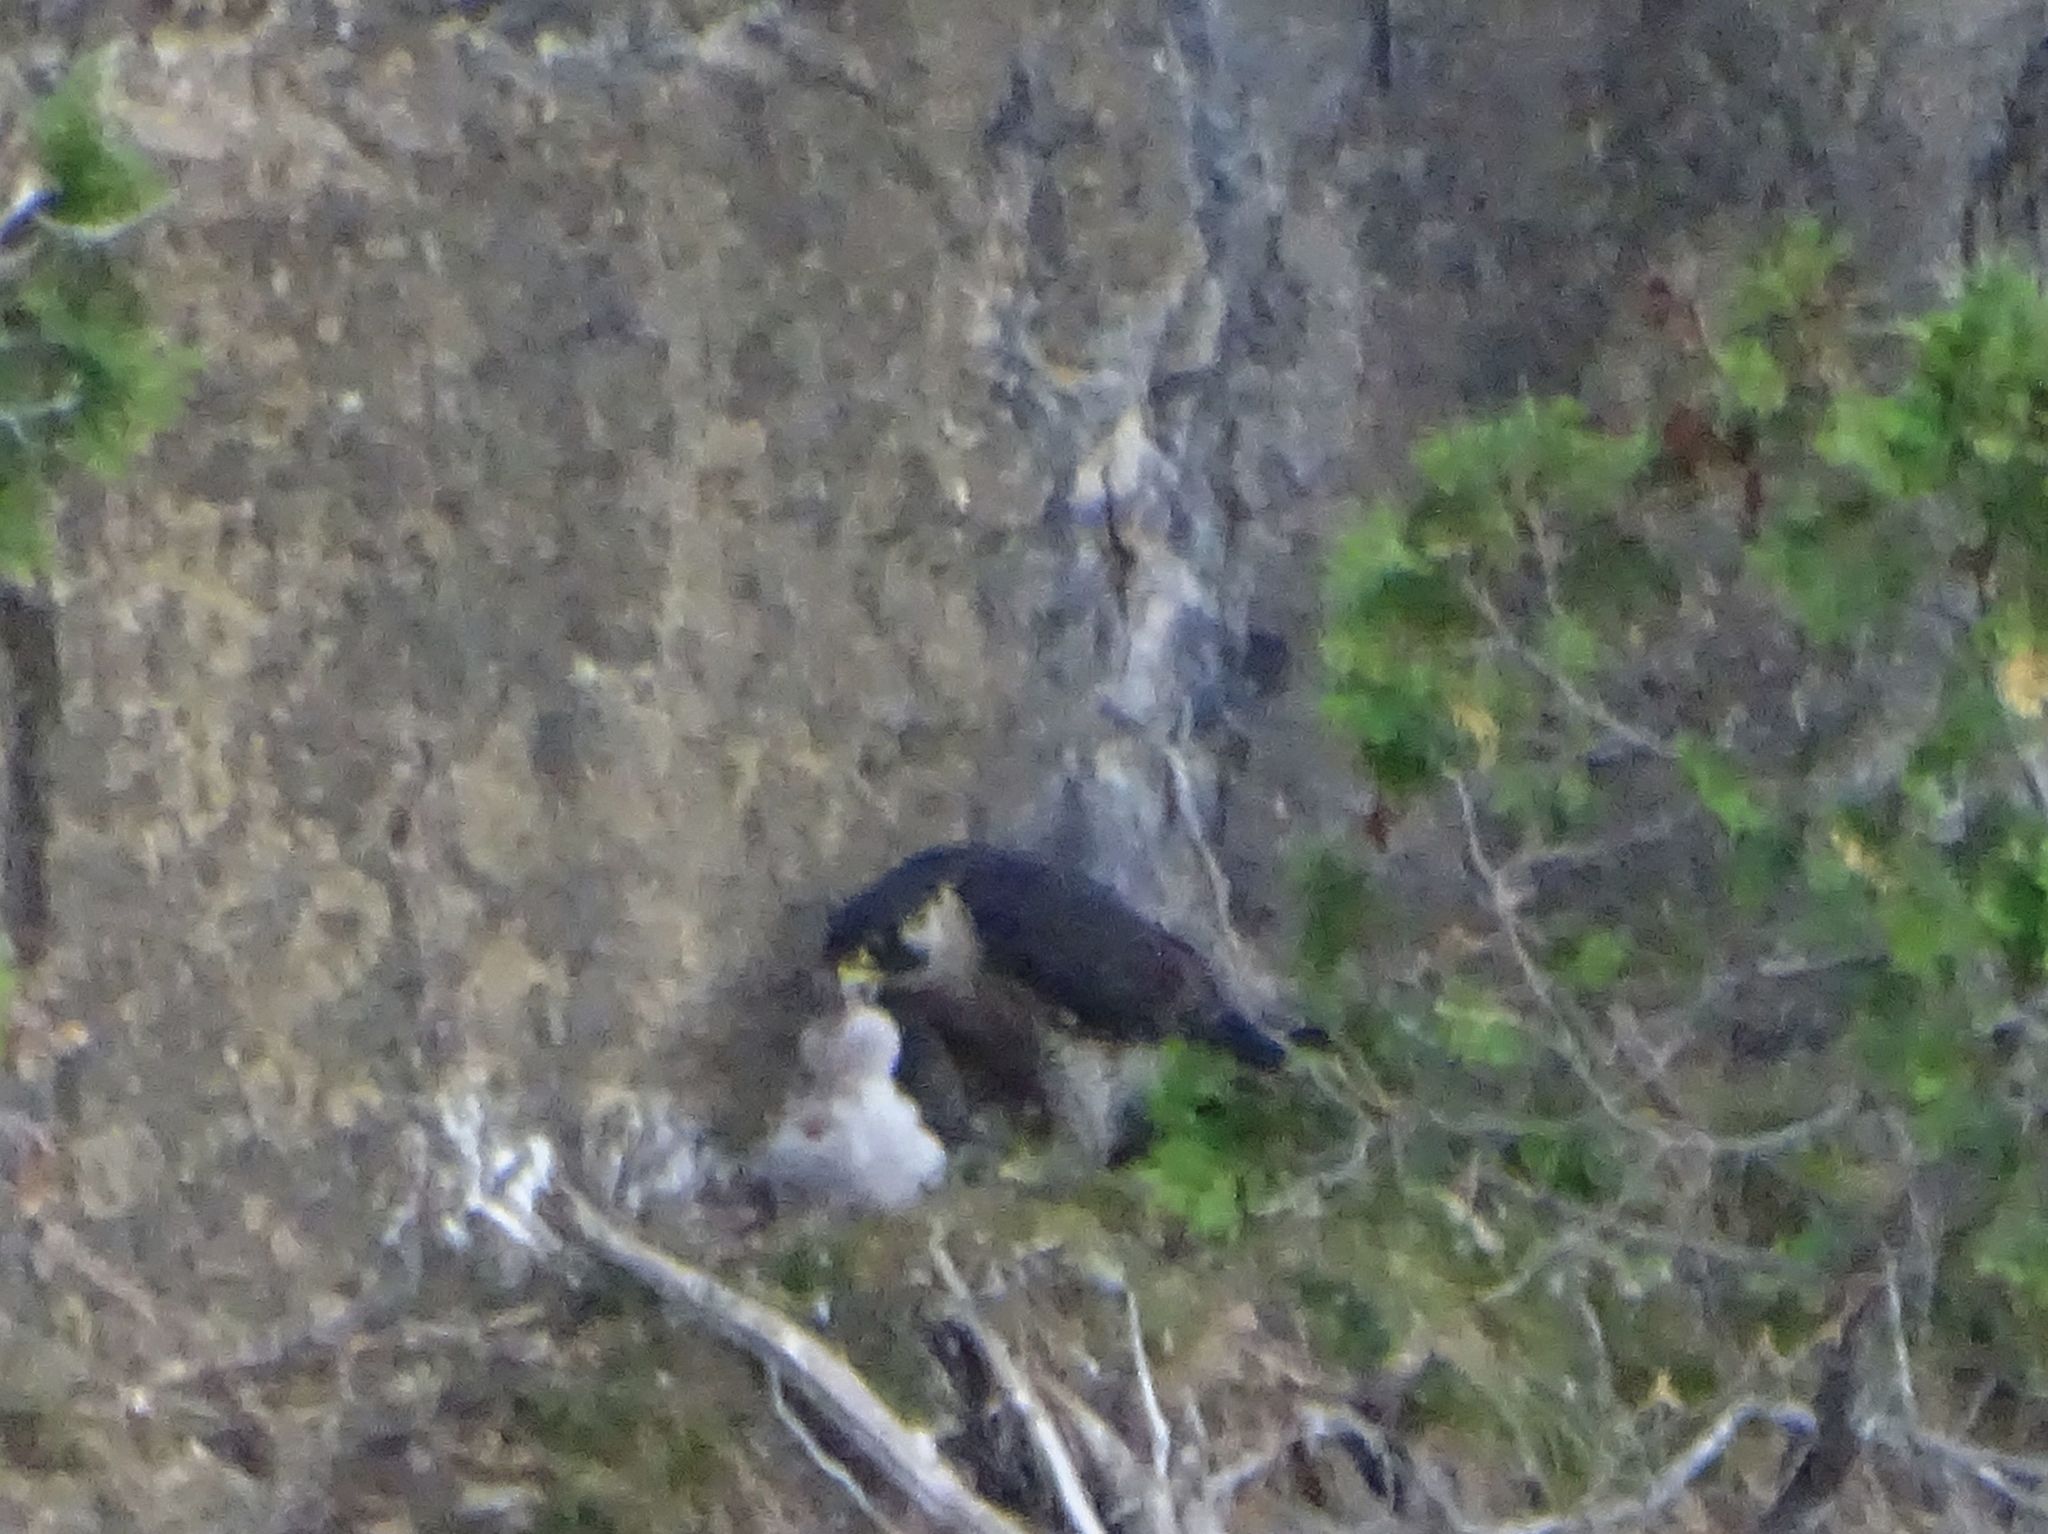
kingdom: Animalia
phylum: Chordata
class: Aves
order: Falconiformes
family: Falconidae
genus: Falco
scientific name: Falco peregrinus
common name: Peregrine falcon
